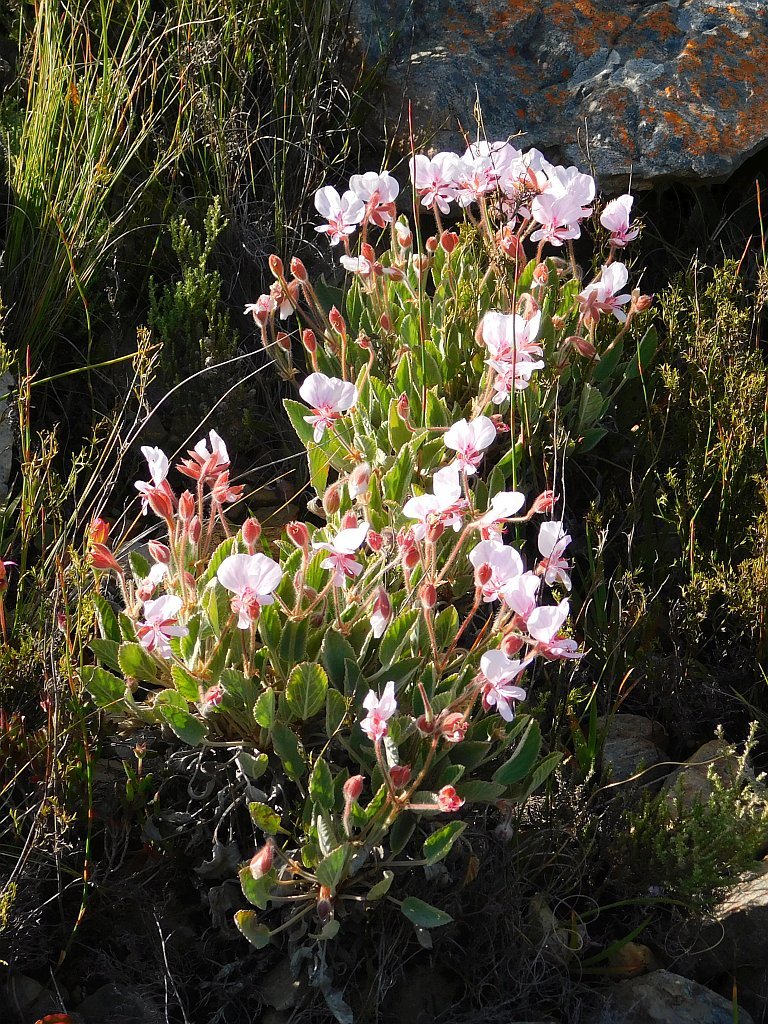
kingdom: Plantae
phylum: Tracheophyta
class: Magnoliopsida
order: Geraniales
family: Geraniaceae
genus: Pelargonium
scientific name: Pelargonium ovale
